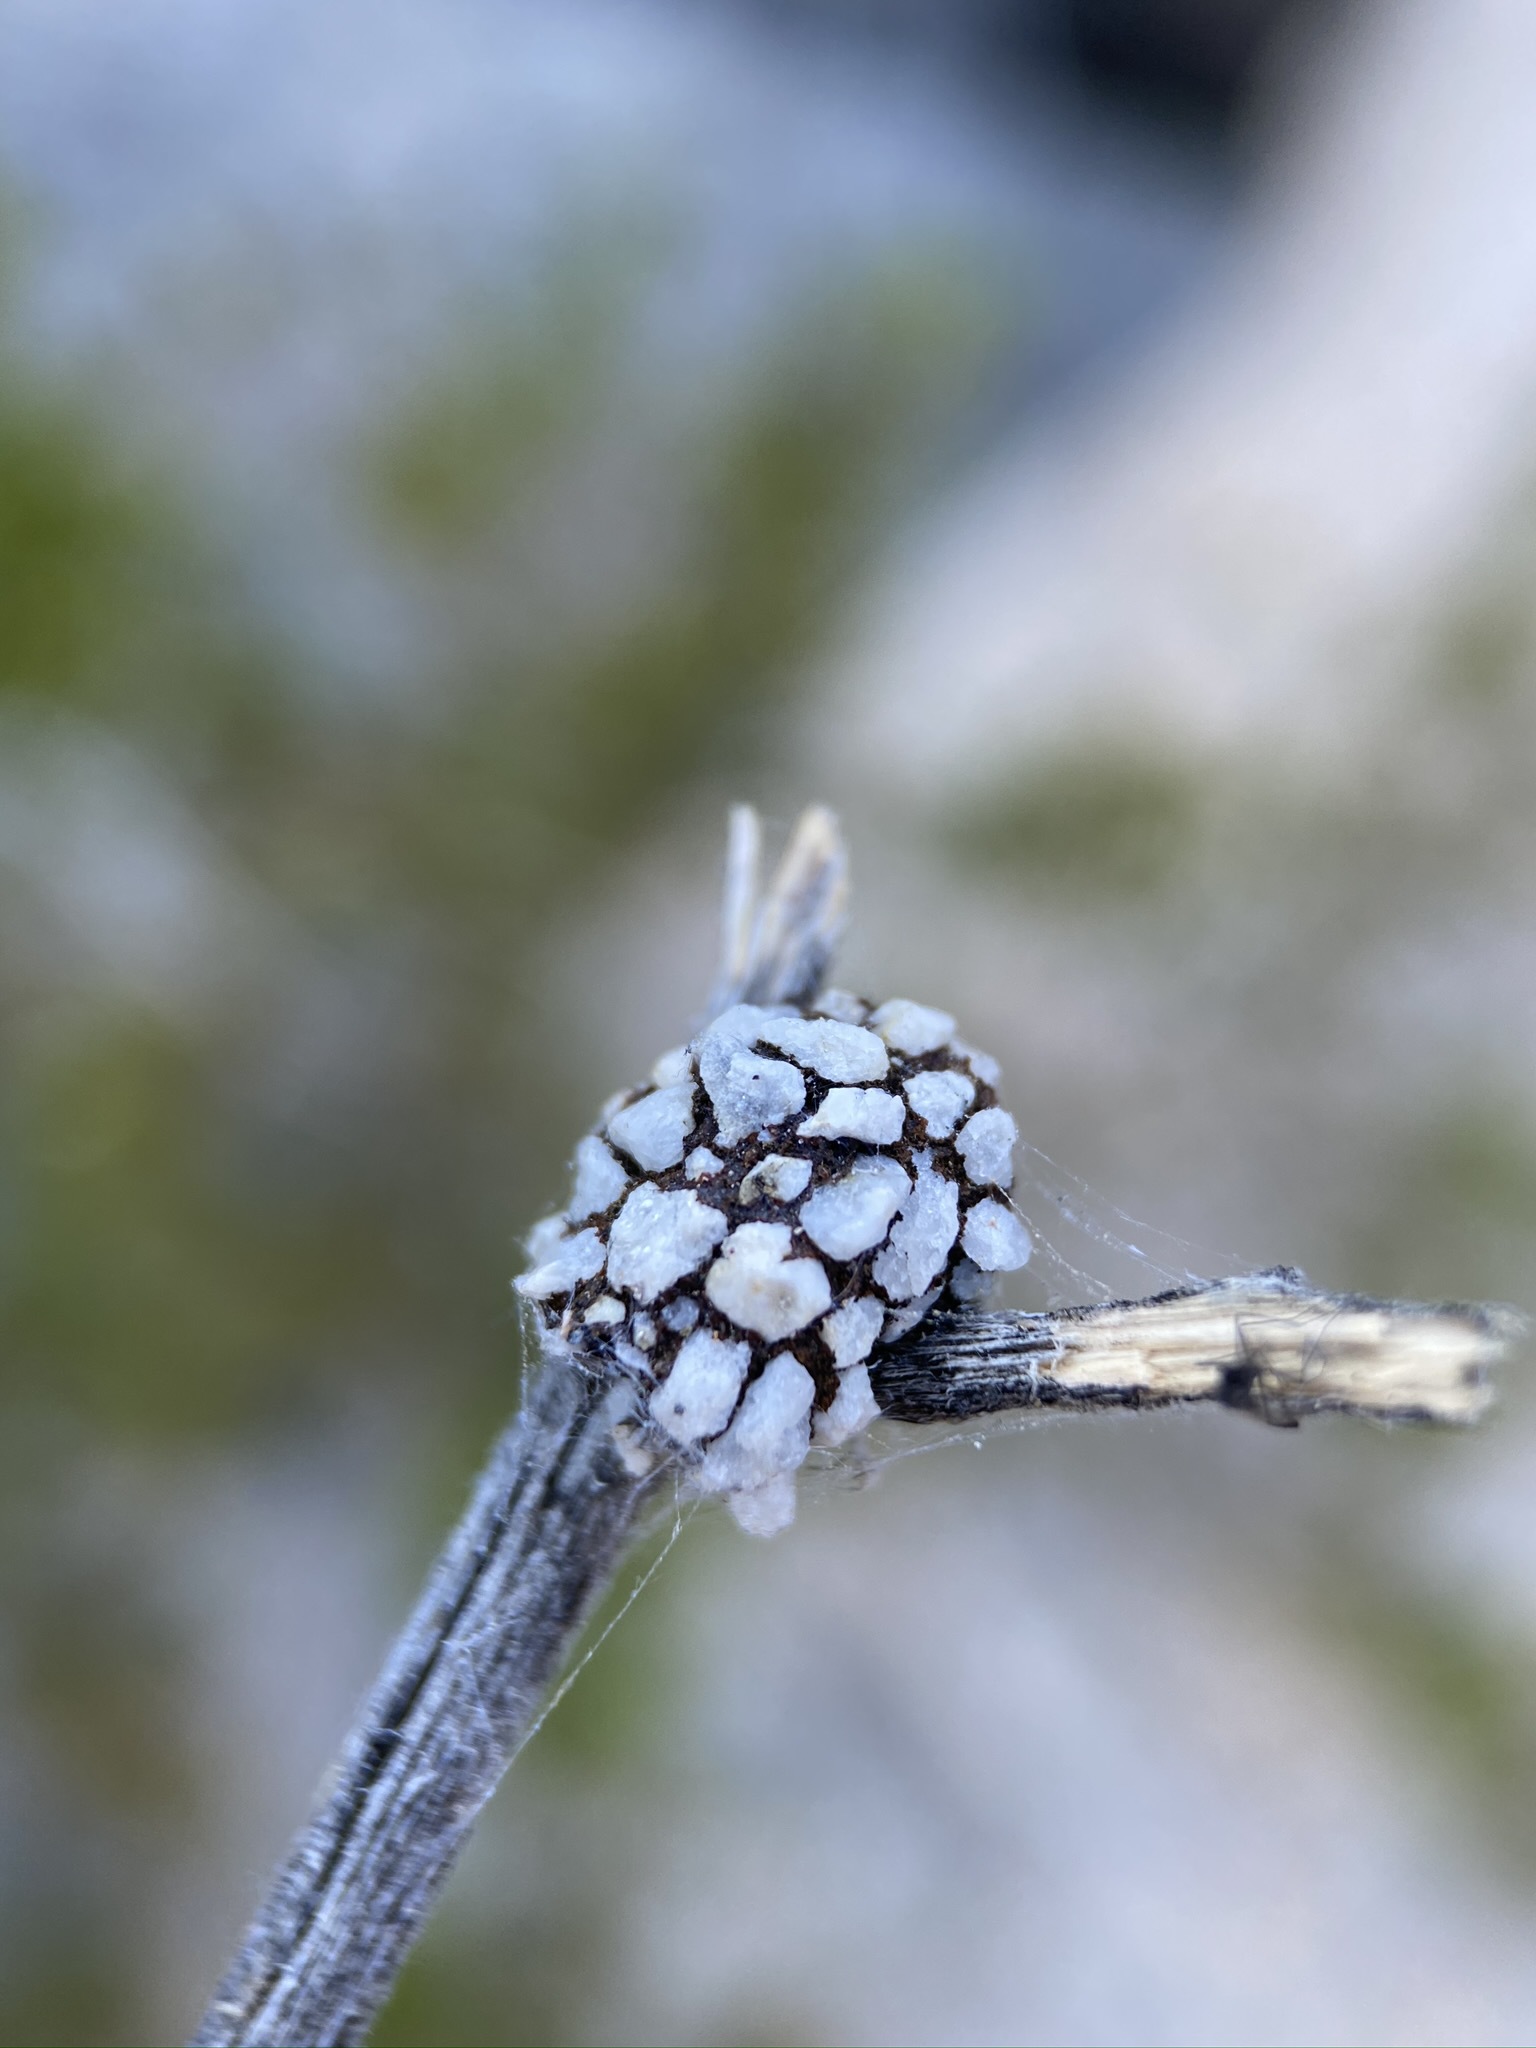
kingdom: Animalia
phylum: Arthropoda
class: Insecta
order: Hymenoptera
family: Megachilidae
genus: Dianthidium
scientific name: Dianthidium
